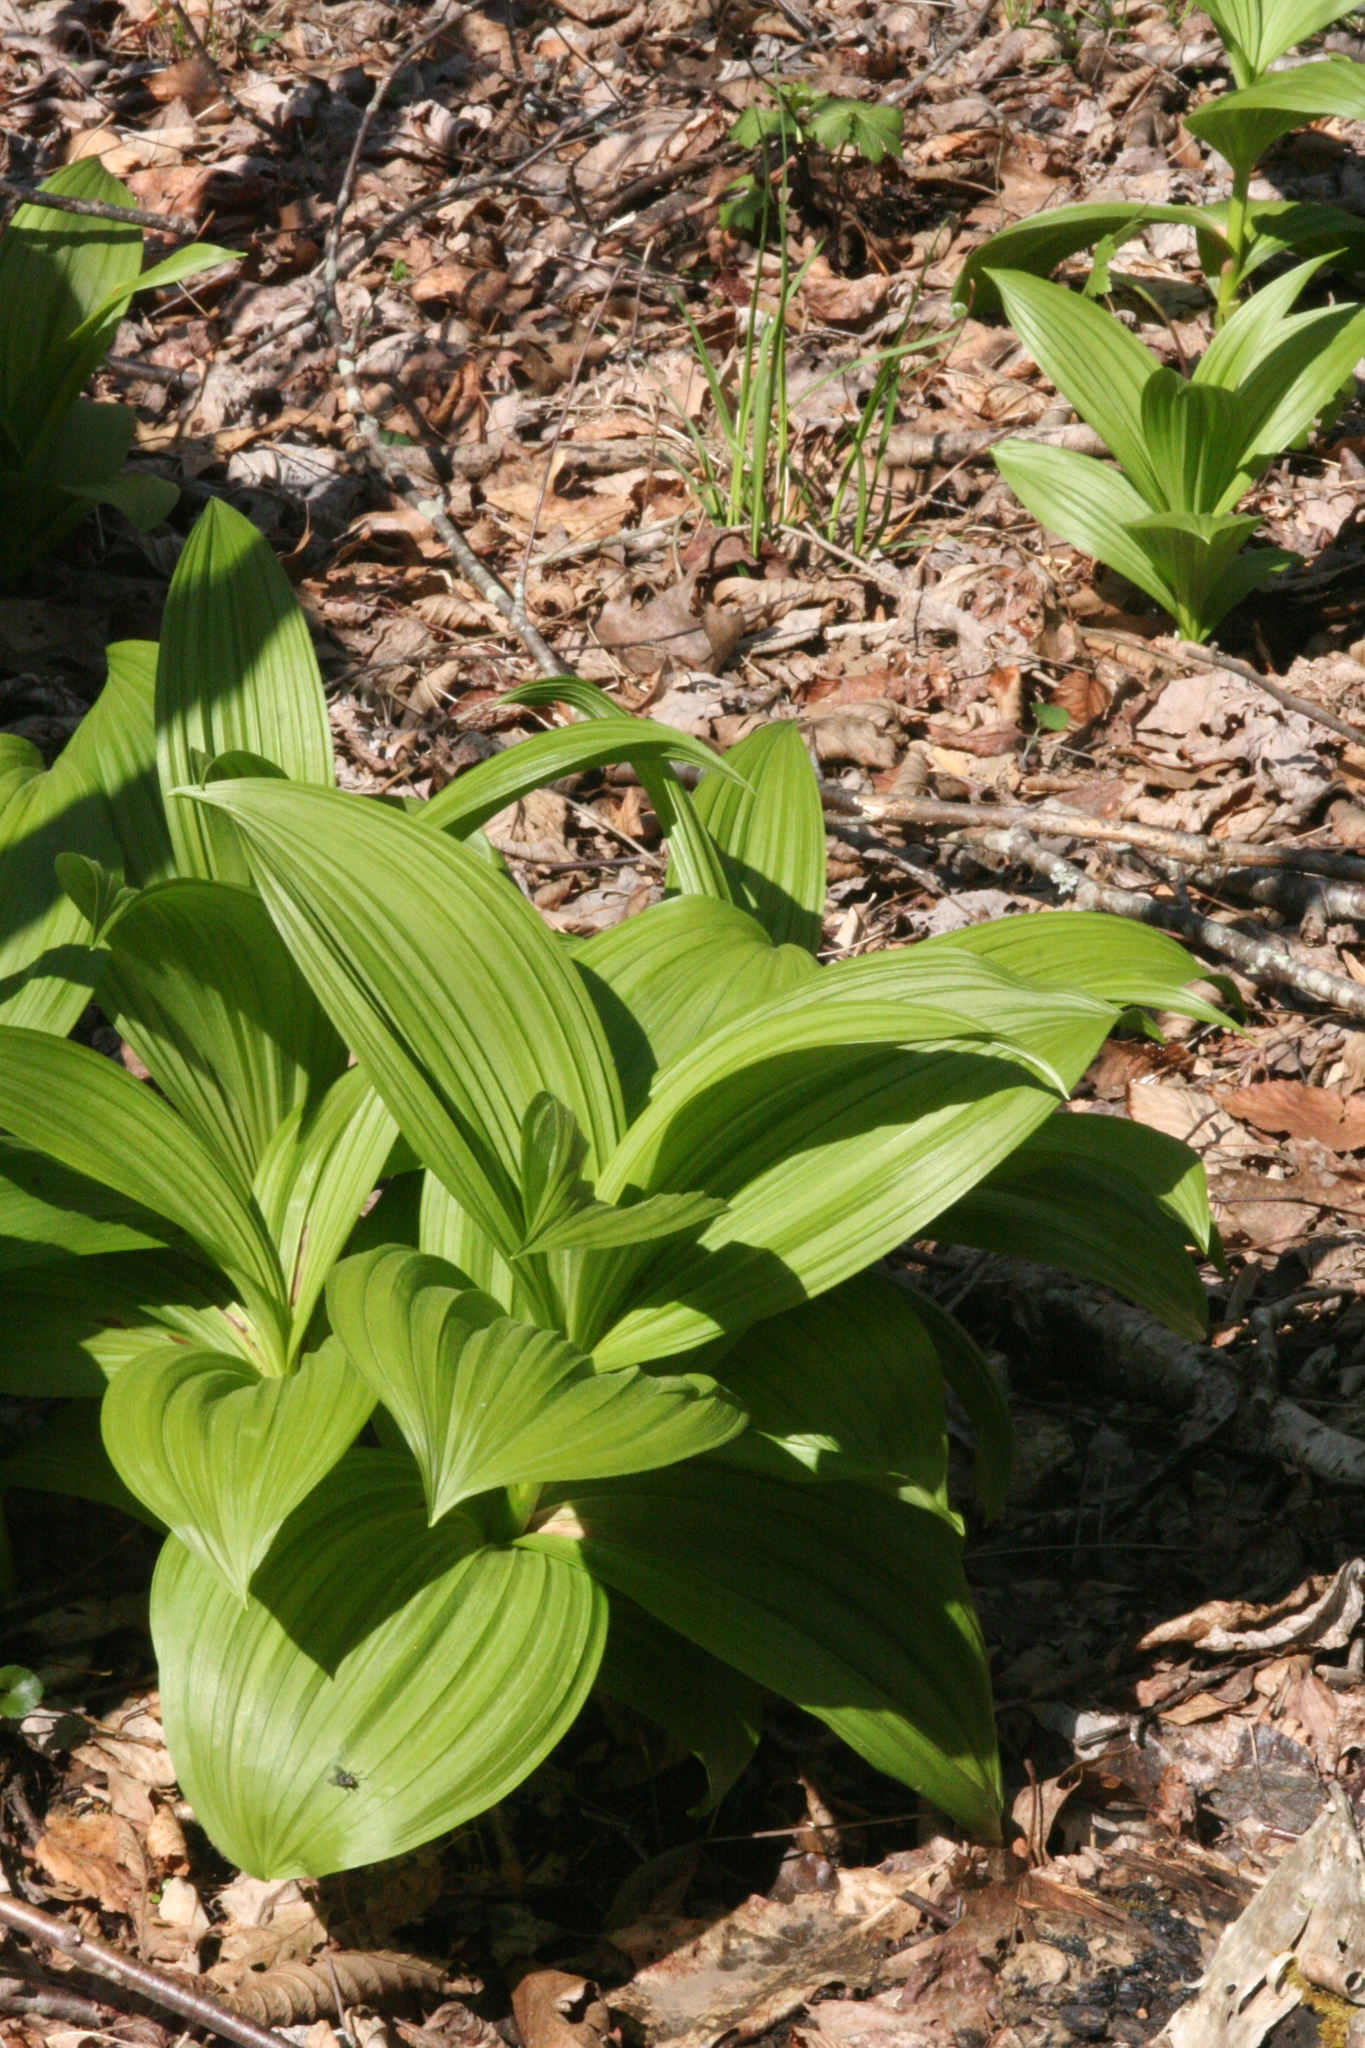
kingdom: Plantae
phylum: Tracheophyta
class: Liliopsida
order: Liliales
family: Melanthiaceae
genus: Veratrum
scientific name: Veratrum viride
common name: American false hellebore
